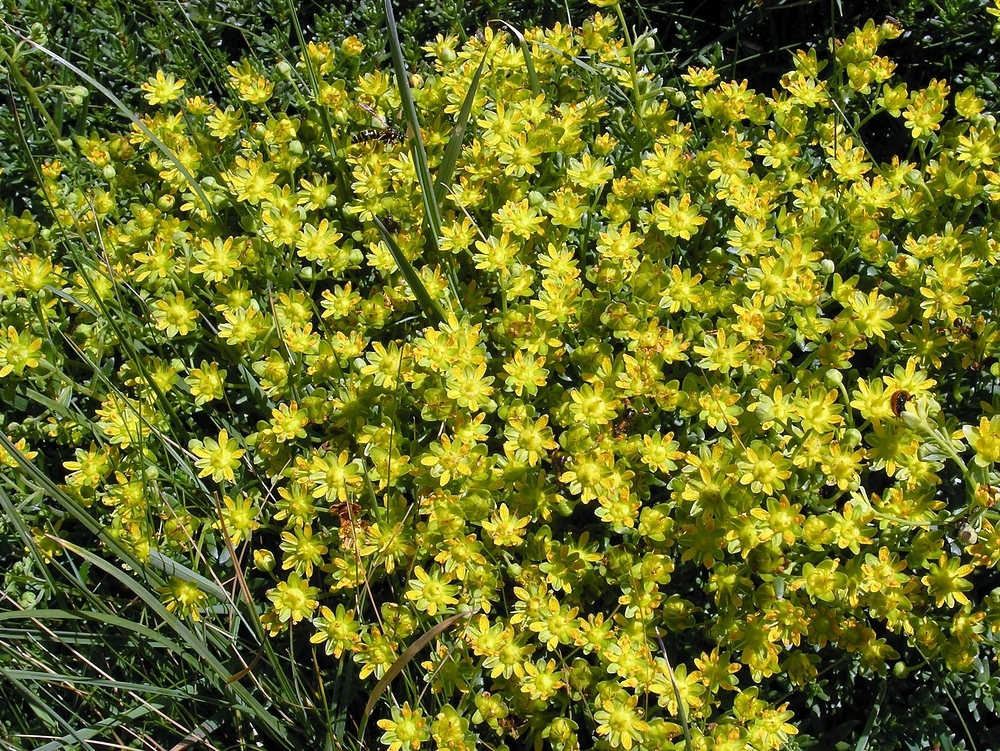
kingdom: Plantae
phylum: Tracheophyta
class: Magnoliopsida
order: Saxifragales
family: Saxifragaceae
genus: Saxifraga
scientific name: Saxifraga aizoides
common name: Yellow mountain saxifrage
